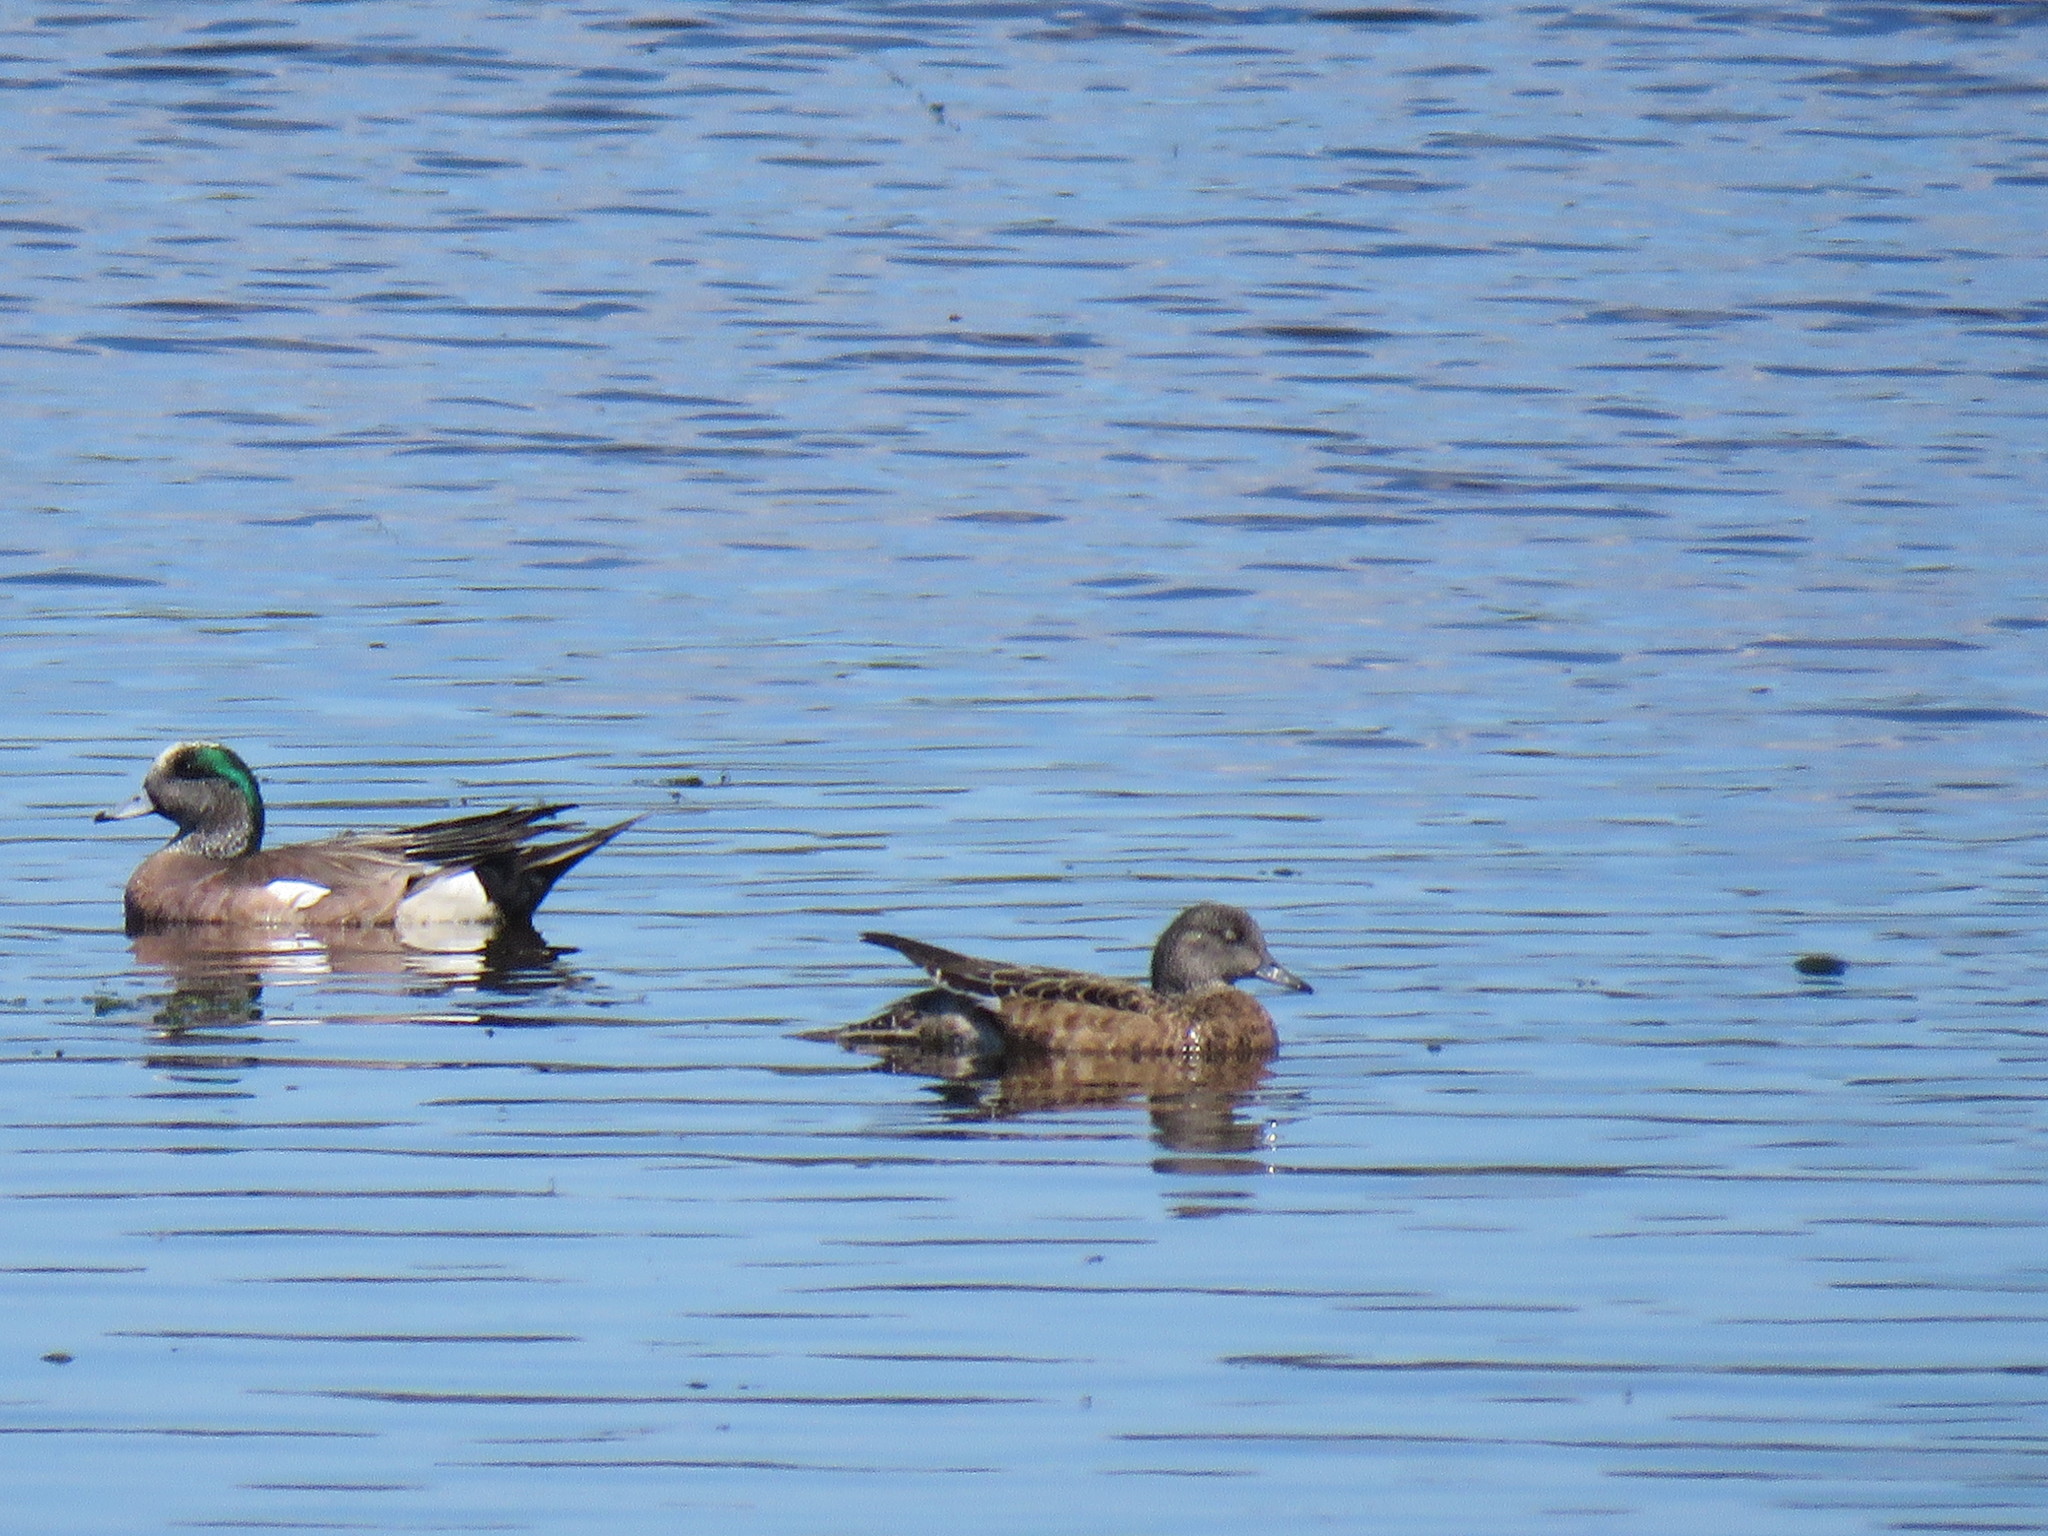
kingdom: Animalia
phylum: Chordata
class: Aves
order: Anseriformes
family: Anatidae
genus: Mareca
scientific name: Mareca americana
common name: American wigeon
